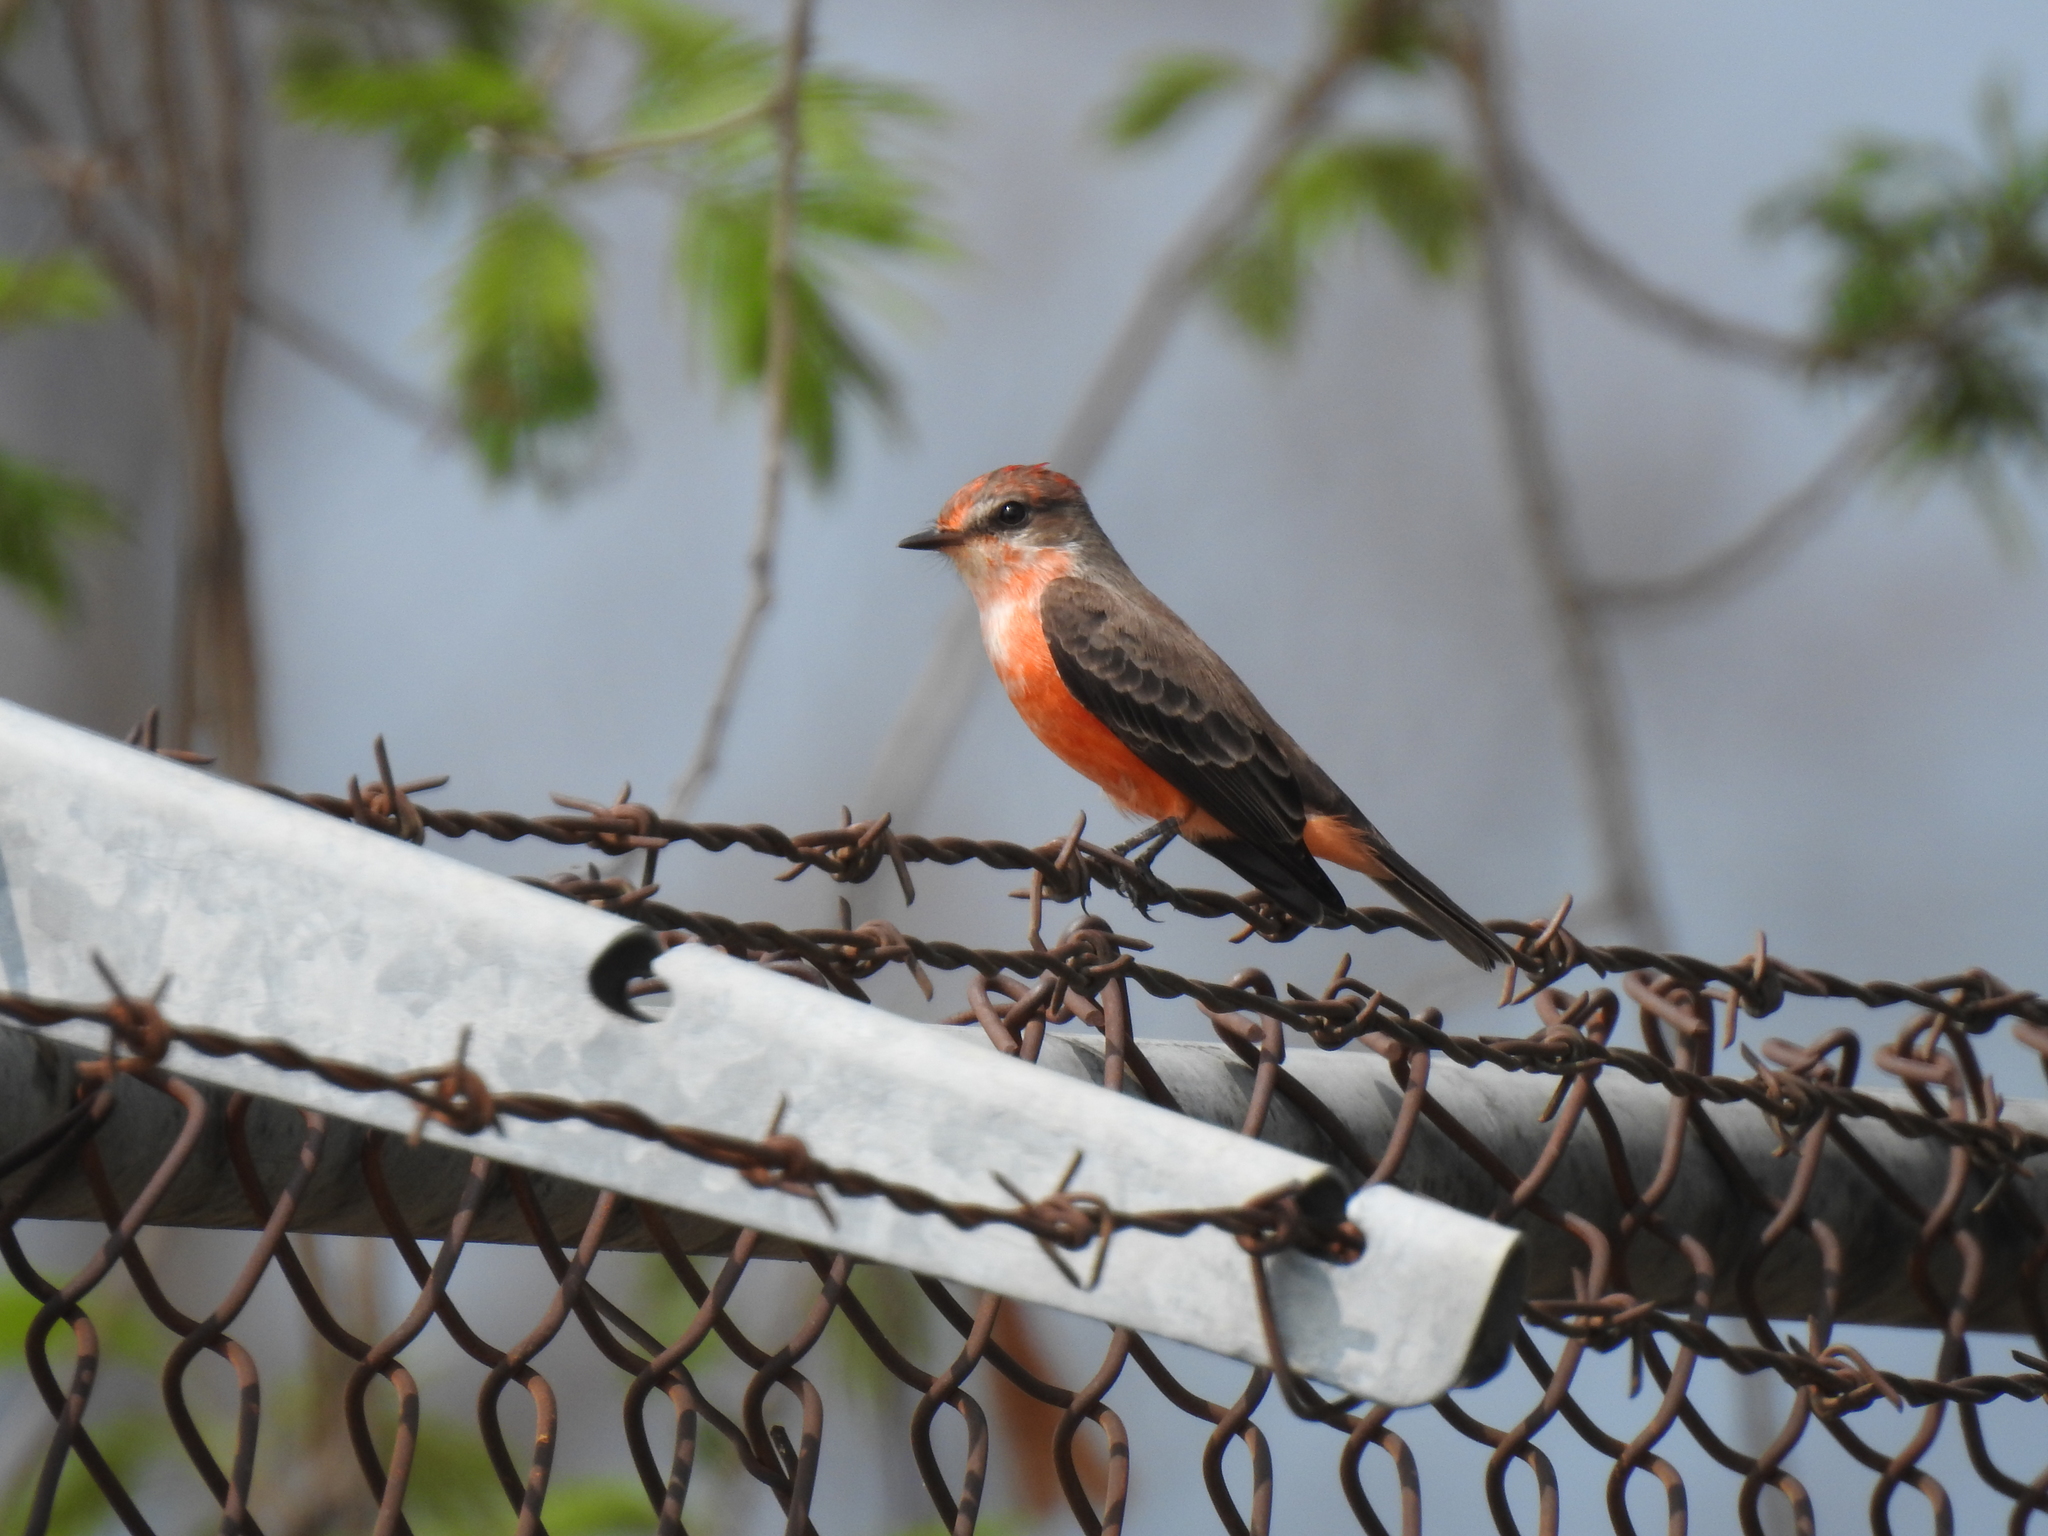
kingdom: Animalia
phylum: Chordata
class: Aves
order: Passeriformes
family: Tyrannidae
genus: Pyrocephalus
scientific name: Pyrocephalus rubinus
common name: Vermilion flycatcher
